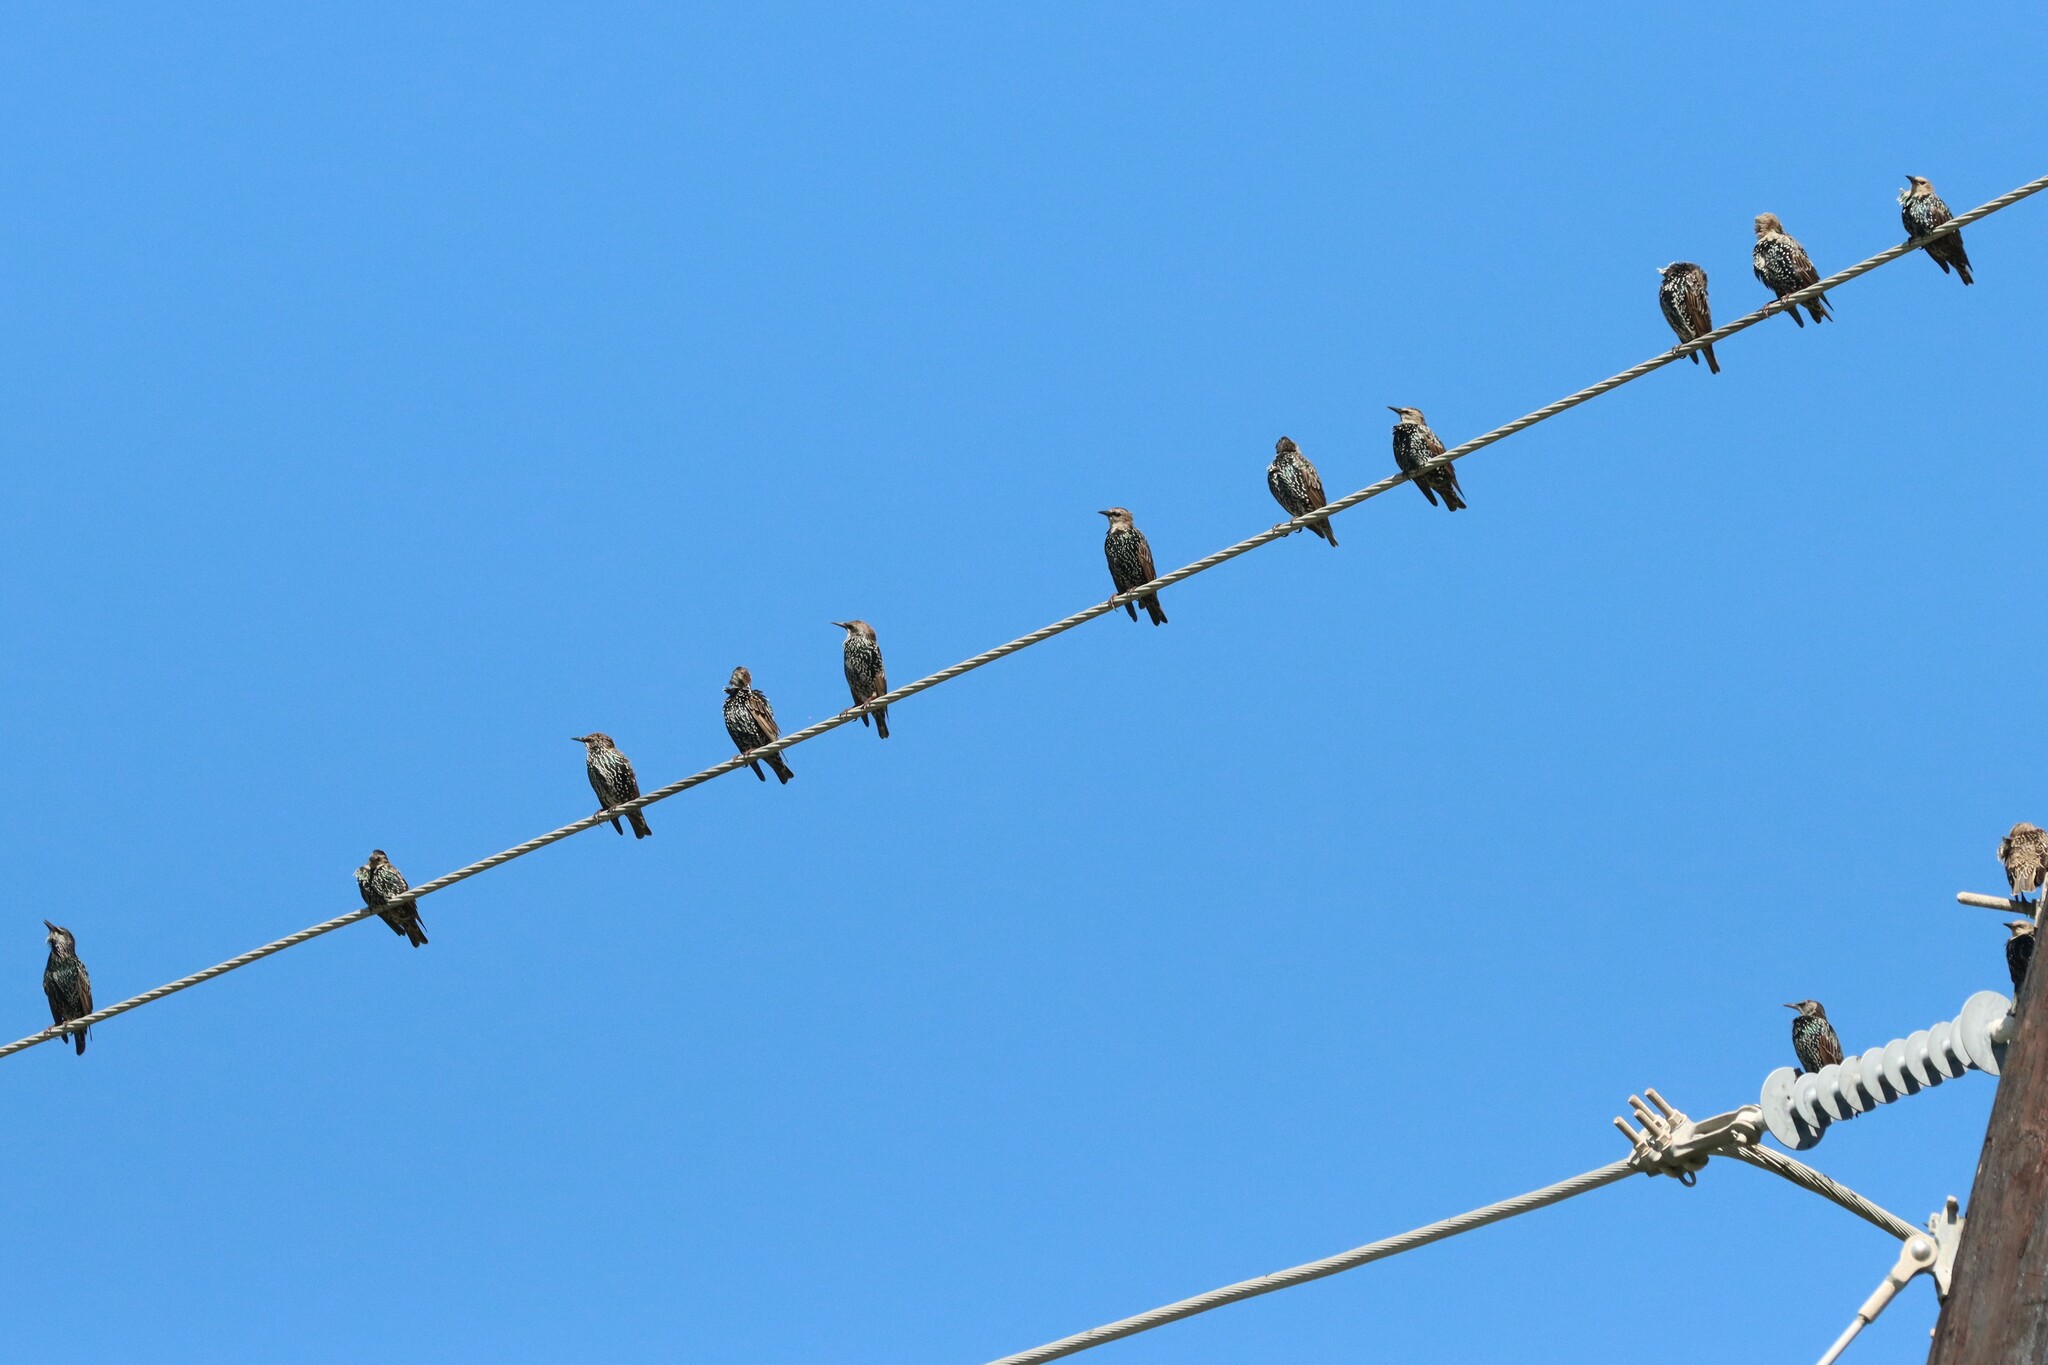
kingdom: Animalia
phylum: Chordata
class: Aves
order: Passeriformes
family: Sturnidae
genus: Sturnus
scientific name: Sturnus vulgaris
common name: Common starling
